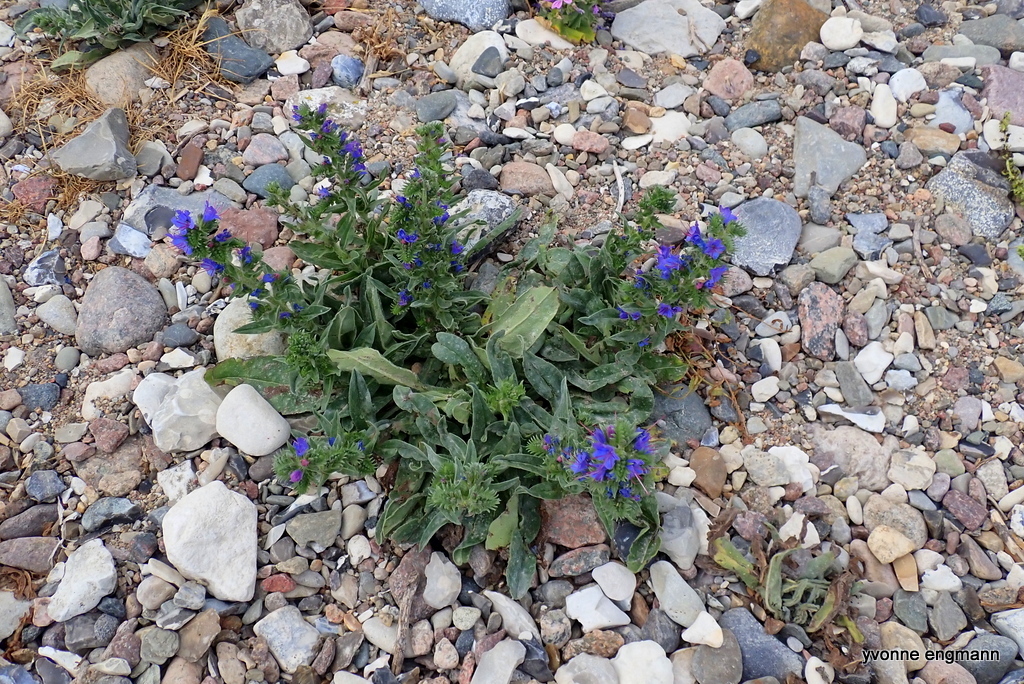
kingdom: Plantae
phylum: Tracheophyta
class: Magnoliopsida
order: Boraginales
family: Boraginaceae
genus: Echium
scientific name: Echium vulgare
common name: Common viper's bugloss
